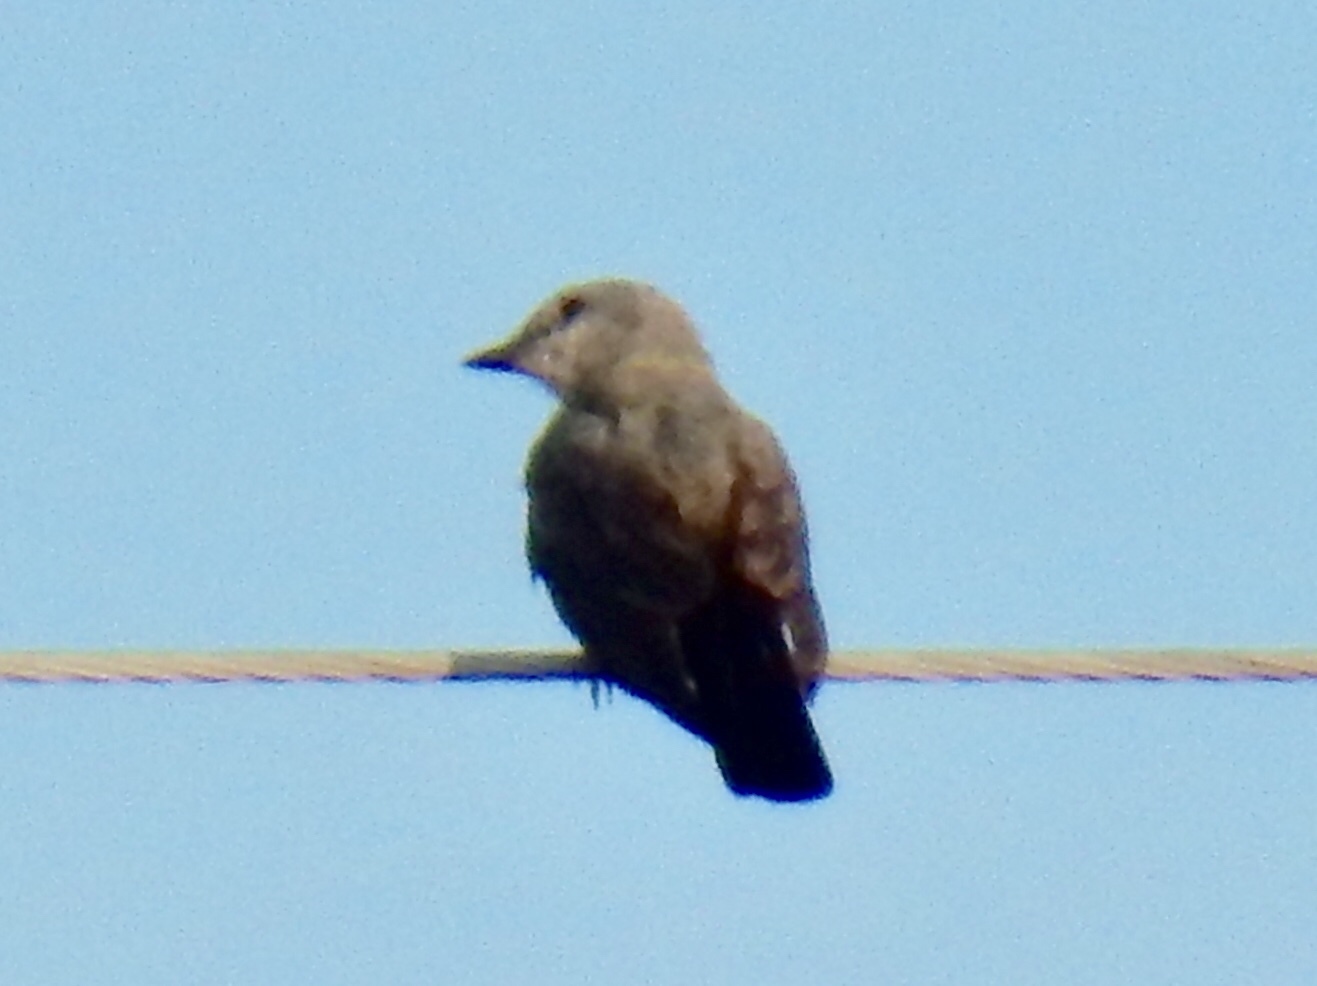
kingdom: Animalia
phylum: Chordata
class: Aves
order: Passeriformes
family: Tyrannidae
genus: Tyrannus
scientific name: Tyrannus verticalis
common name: Western kingbird
